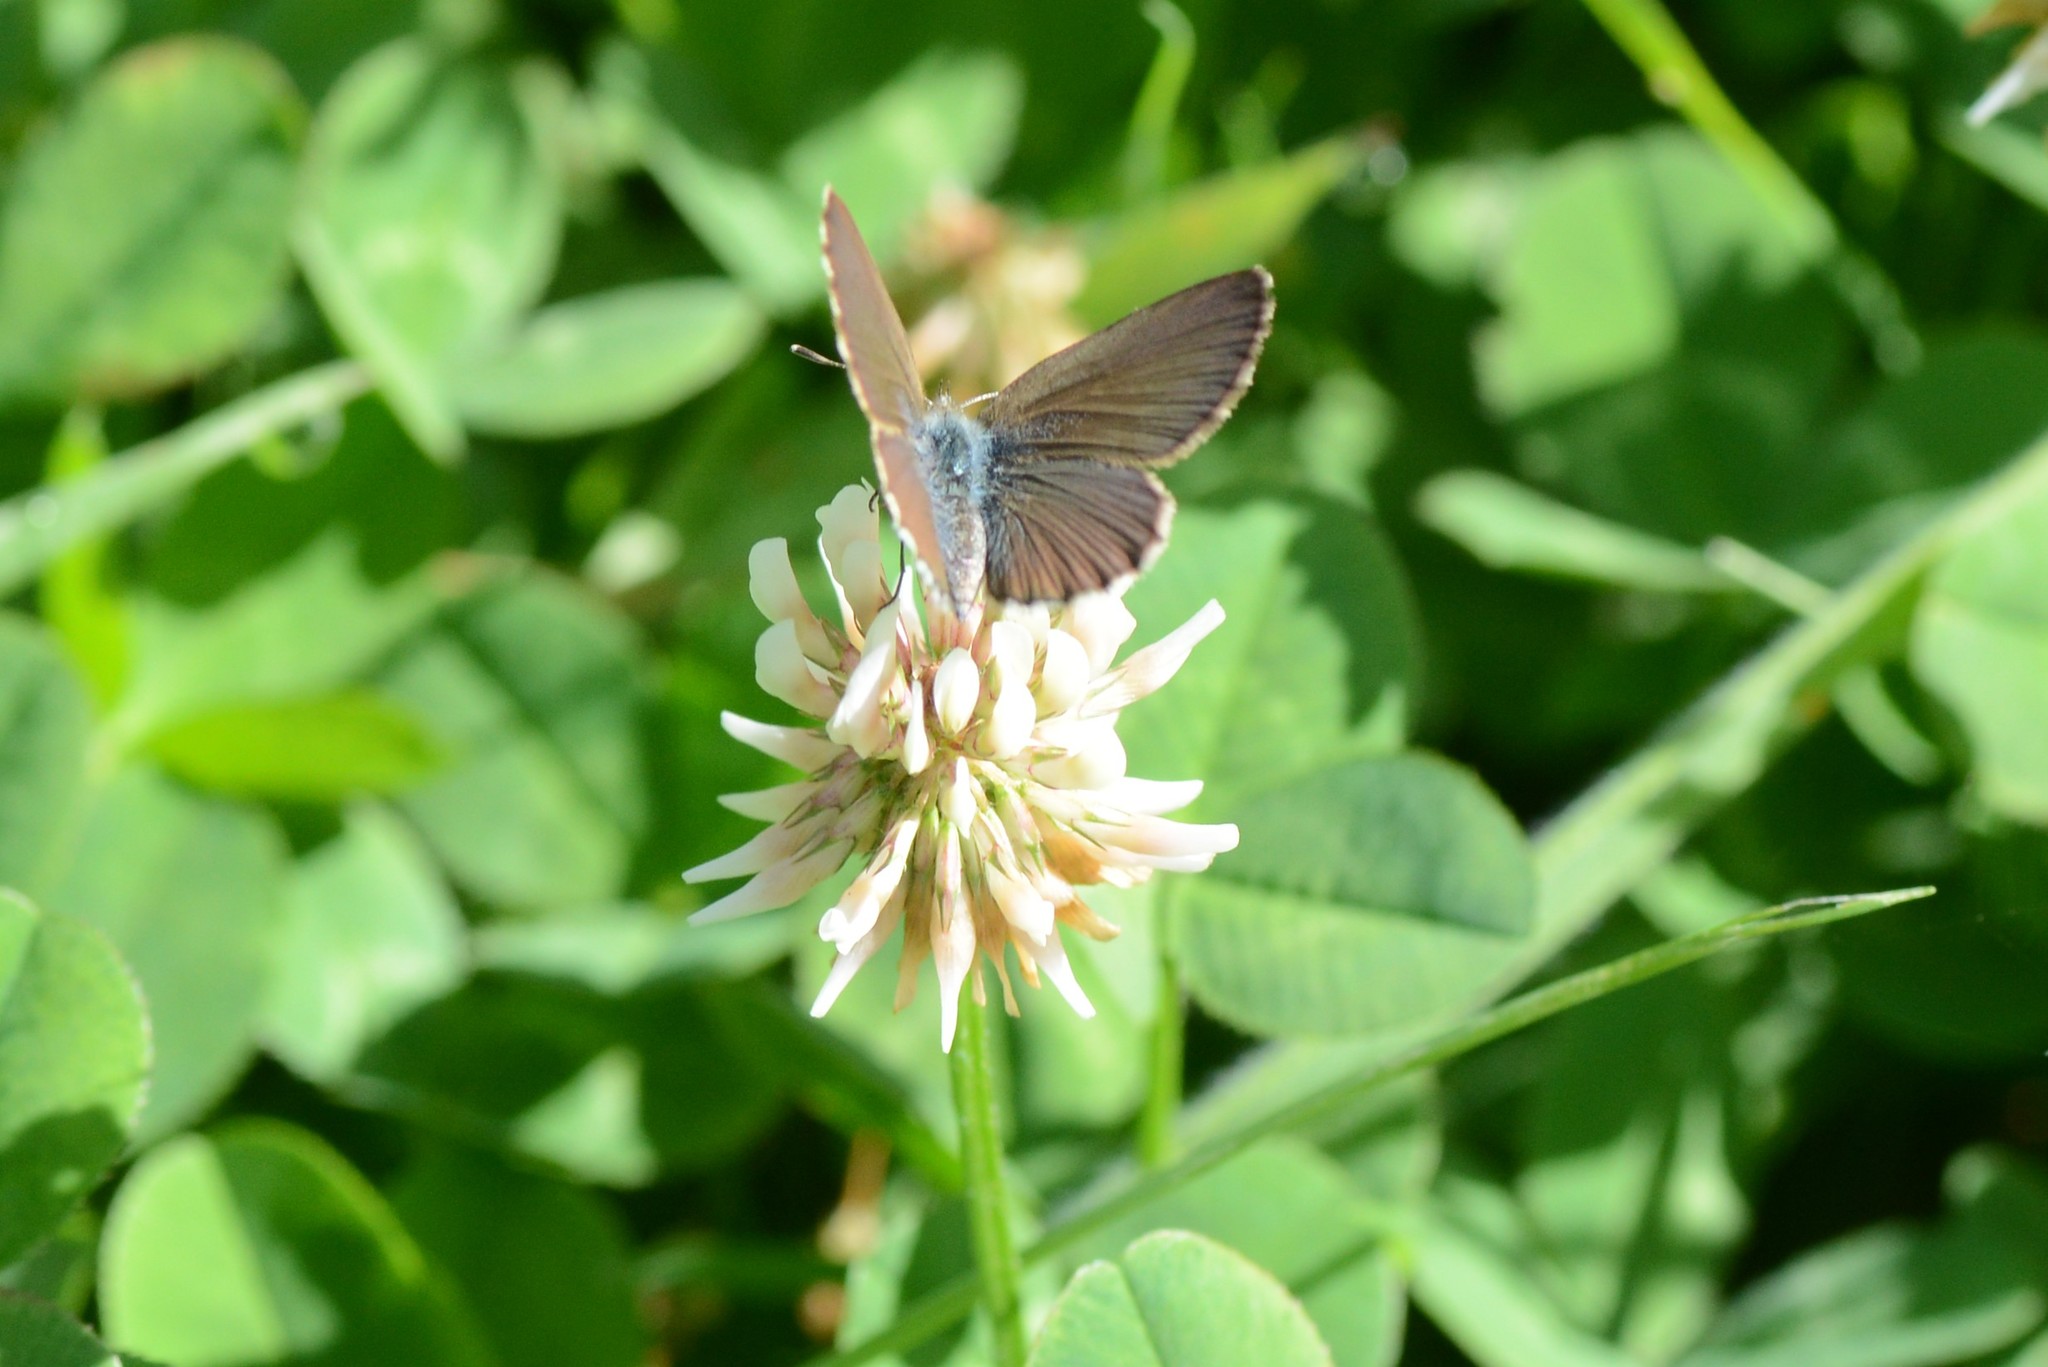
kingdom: Animalia
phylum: Arthropoda
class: Insecta
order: Lepidoptera
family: Lycaenidae
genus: Zizina
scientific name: Zizina oxleyi
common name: Southern blue
